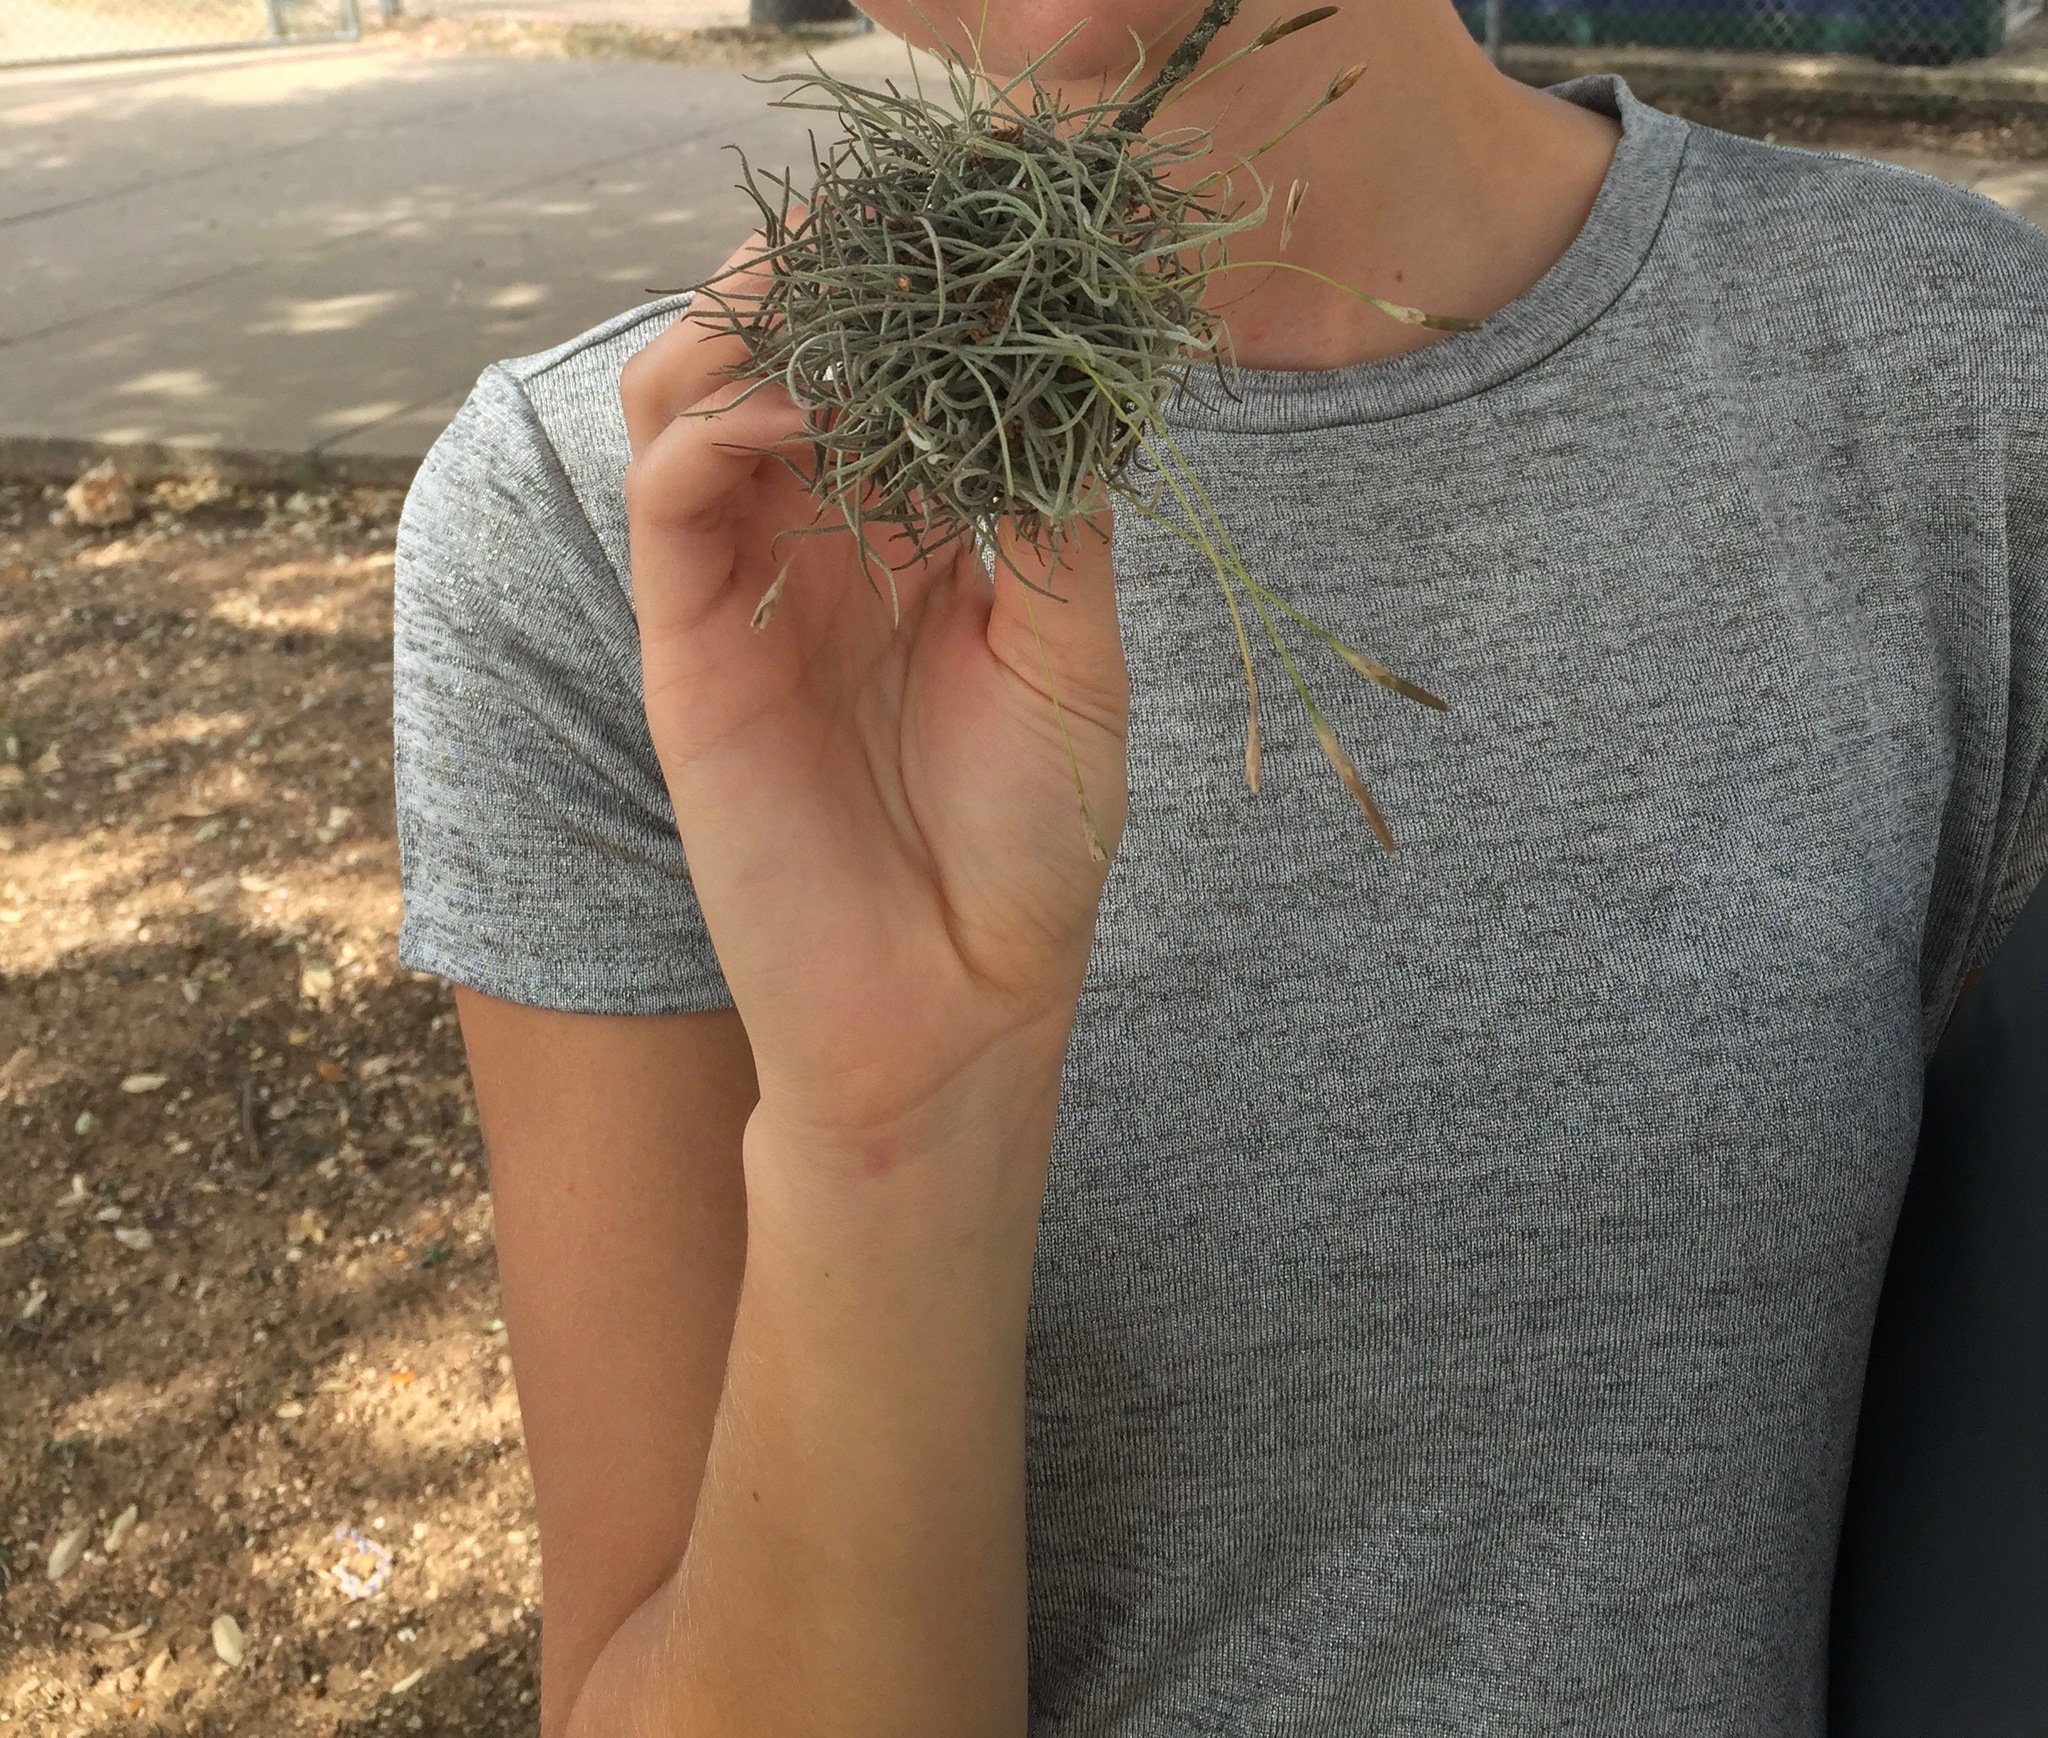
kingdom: Plantae
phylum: Tracheophyta
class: Liliopsida
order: Poales
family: Bromeliaceae
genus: Tillandsia
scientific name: Tillandsia recurvata
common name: Small ballmoss
